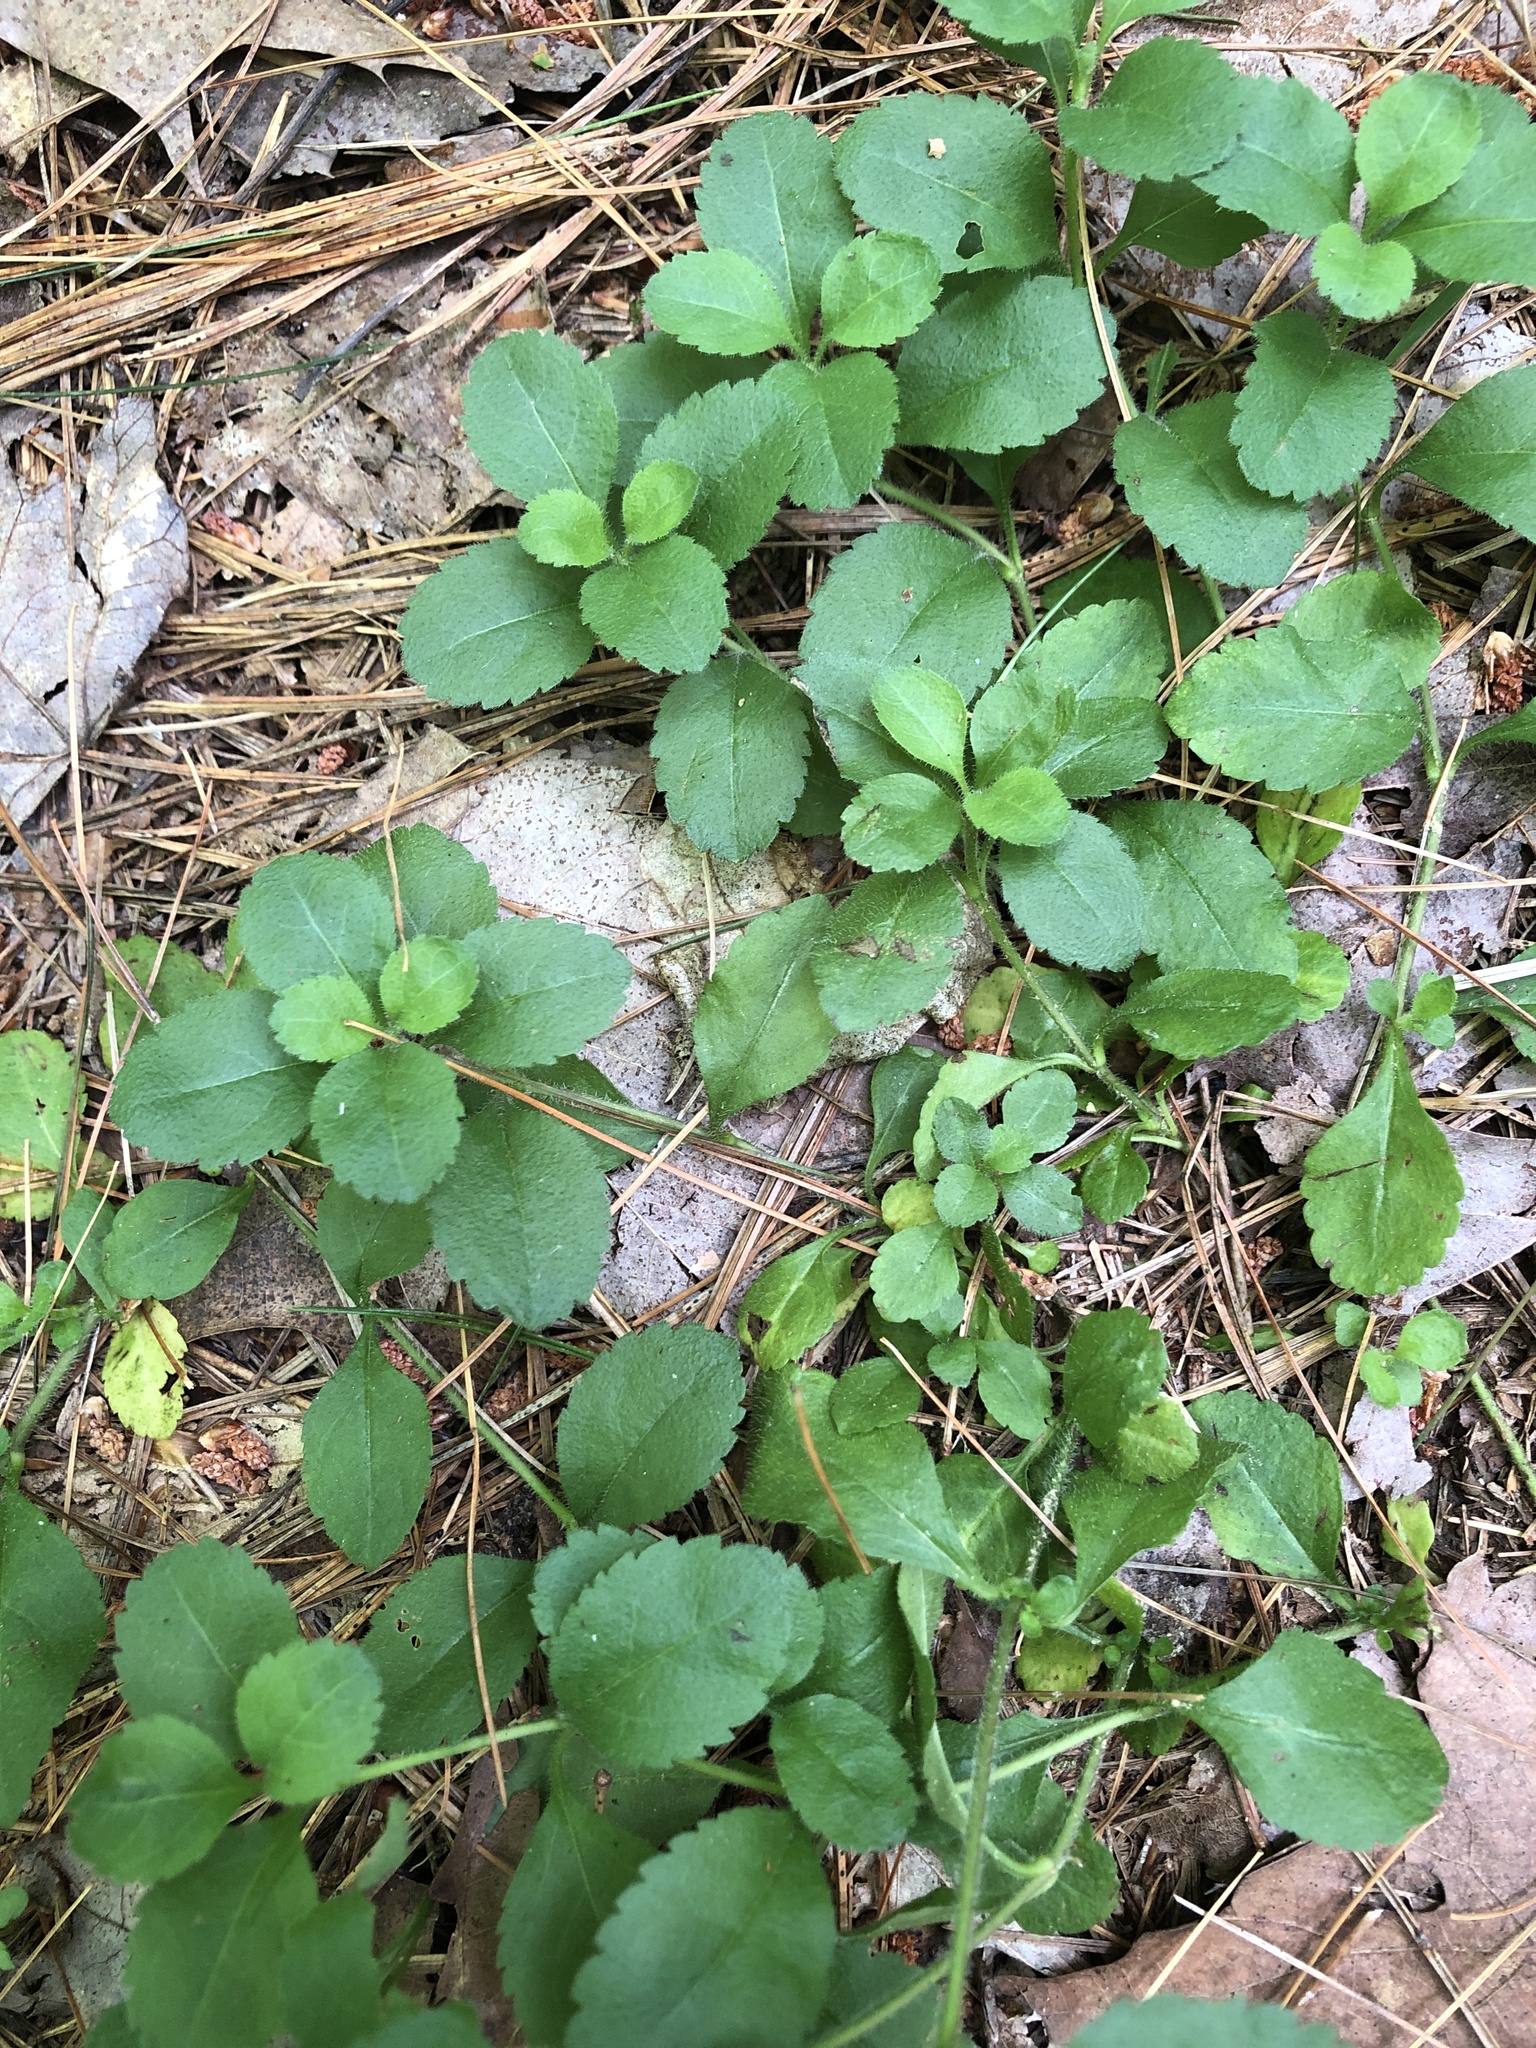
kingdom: Plantae
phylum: Tracheophyta
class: Magnoliopsida
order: Lamiales
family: Plantaginaceae
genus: Veronica
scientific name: Veronica officinalis
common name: Common speedwell
